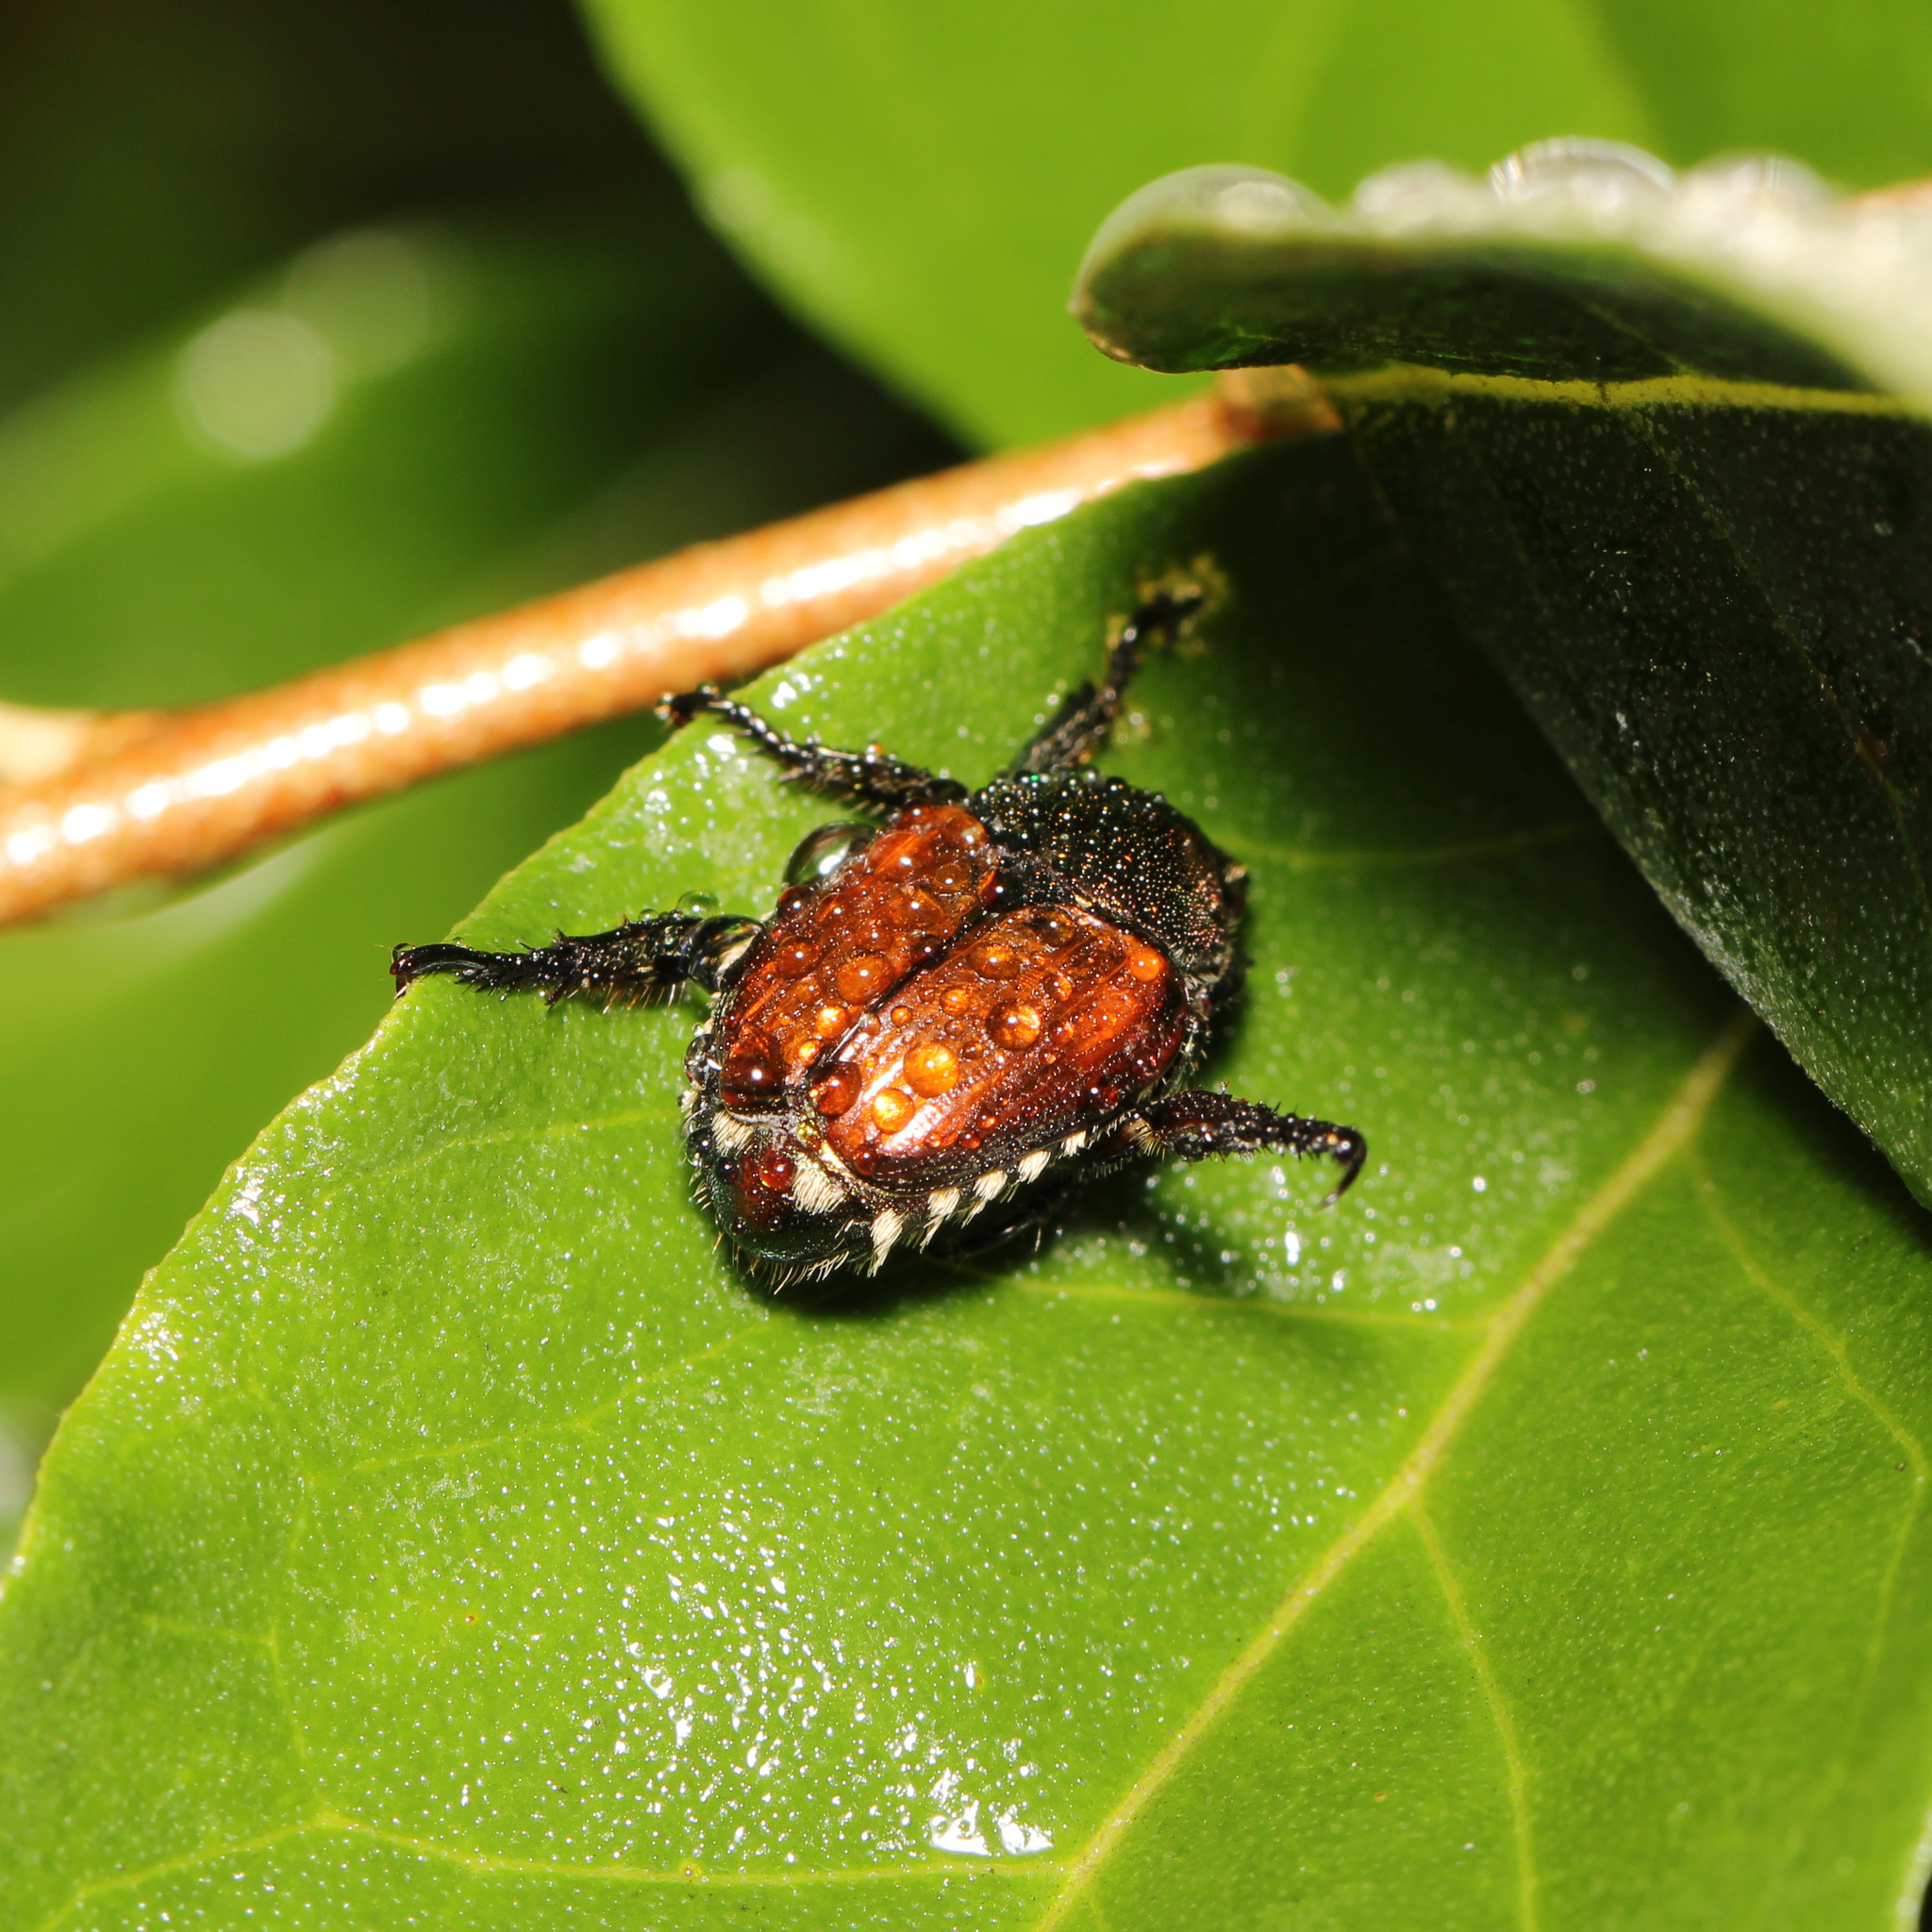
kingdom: Animalia
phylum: Arthropoda
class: Insecta
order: Coleoptera
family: Scarabaeidae
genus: Popillia
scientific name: Popillia japonica
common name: Japanese beetle
